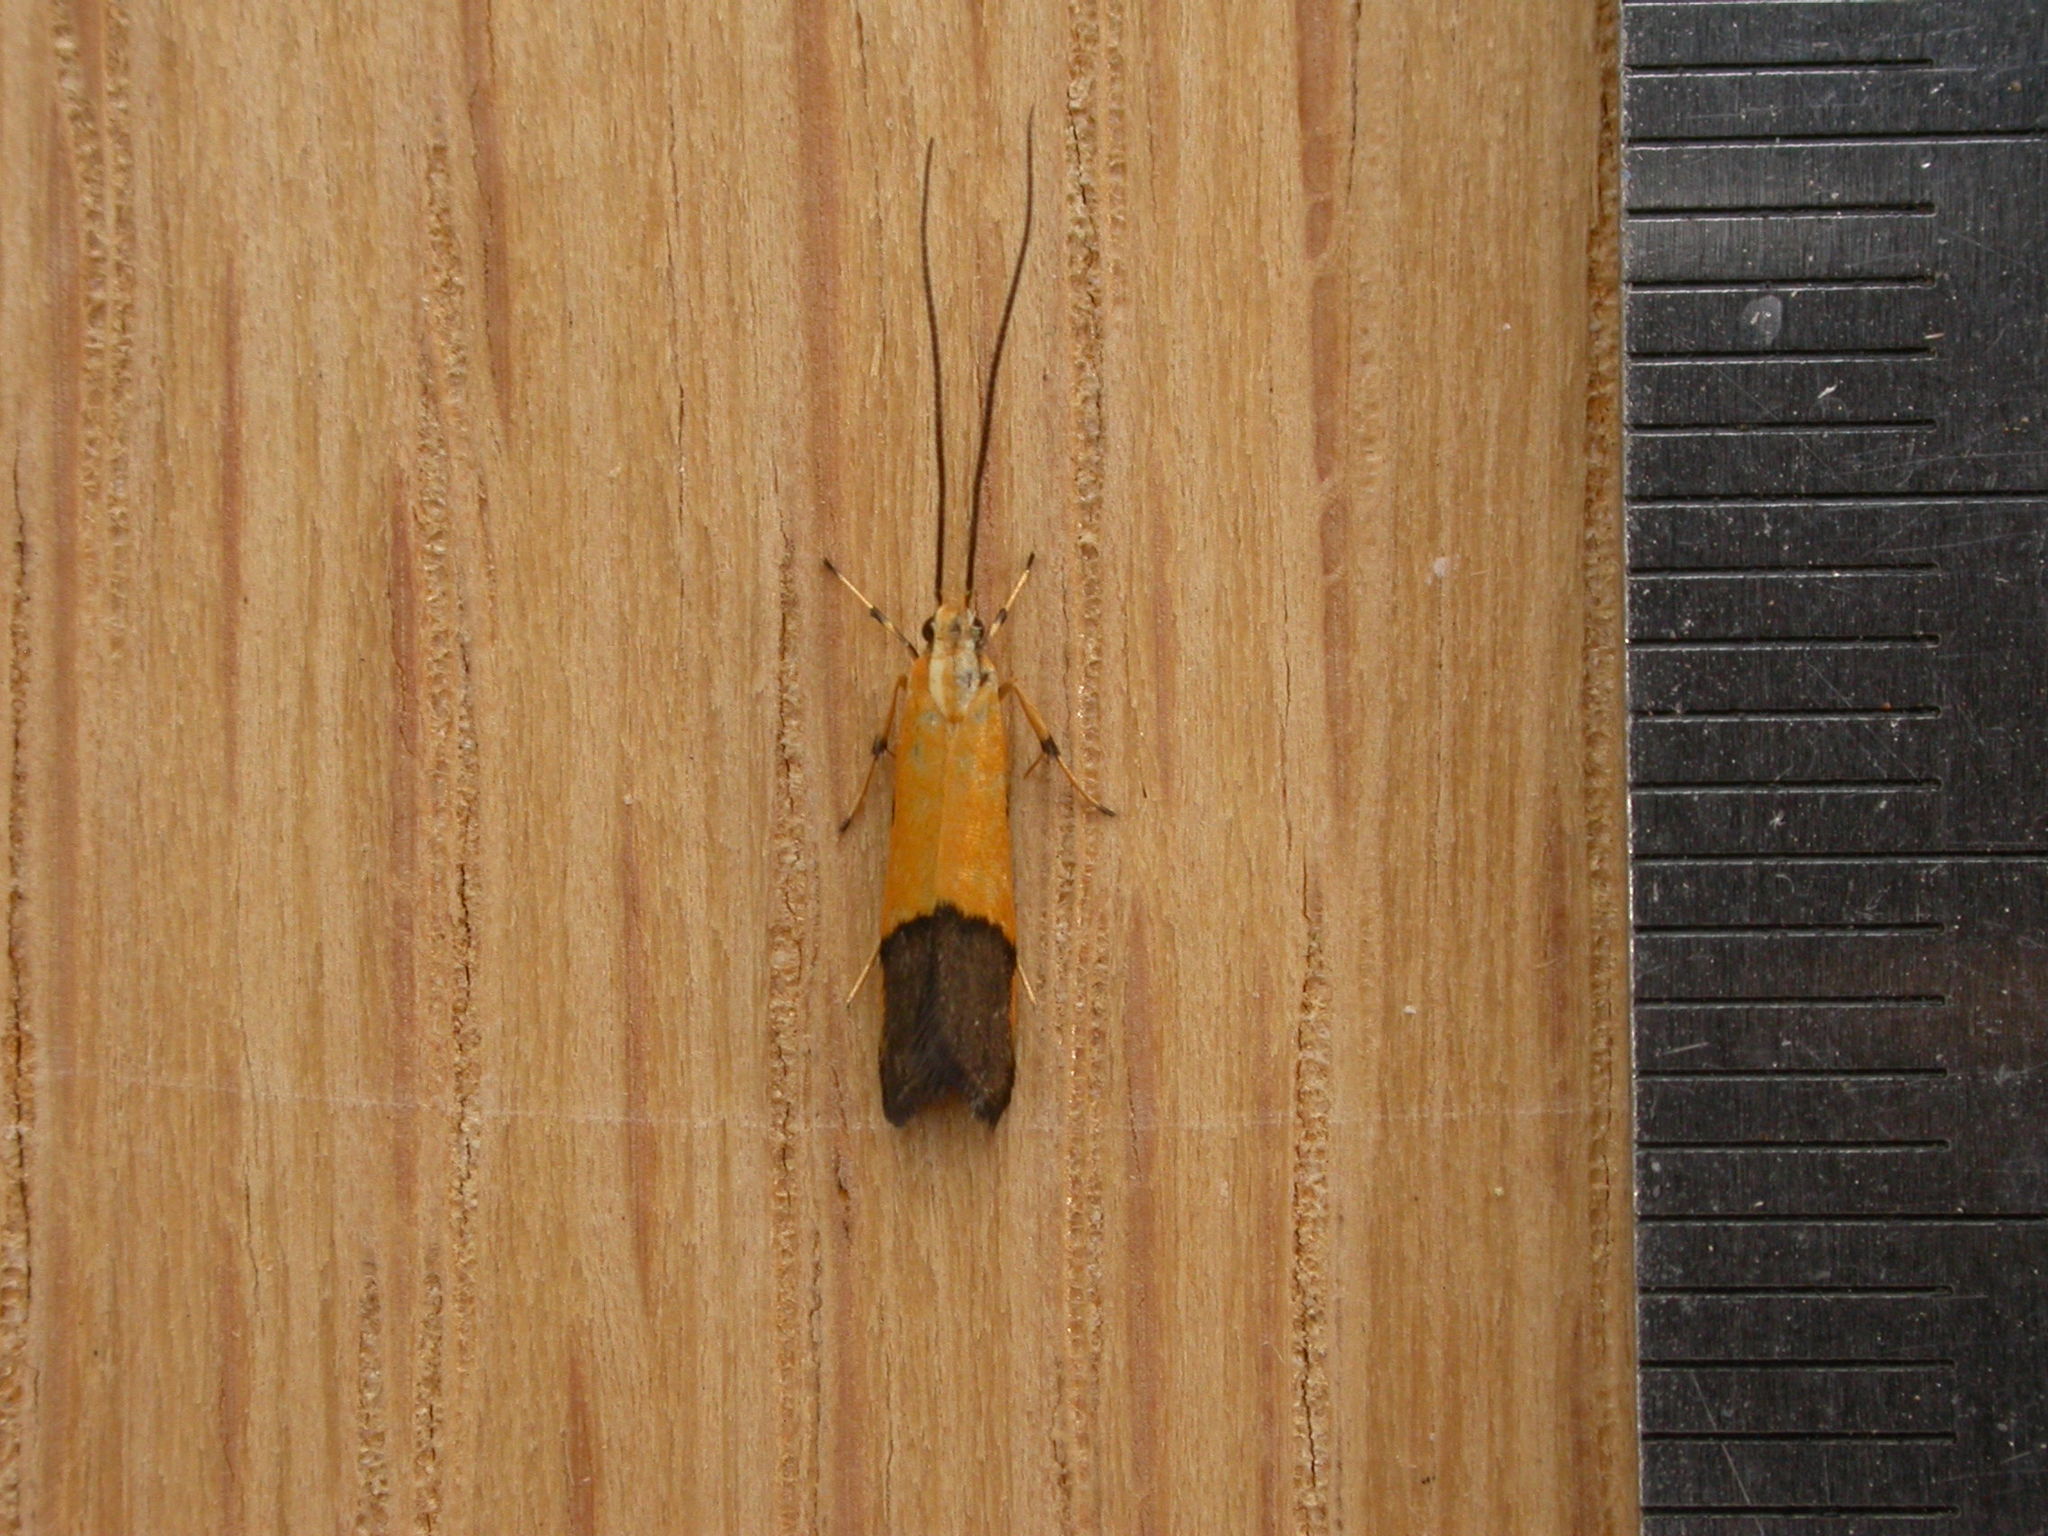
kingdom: Animalia
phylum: Arthropoda
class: Insecta
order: Lepidoptera
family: Lecithoceridae
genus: Crocanthes
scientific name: Crocanthes micradelpha
